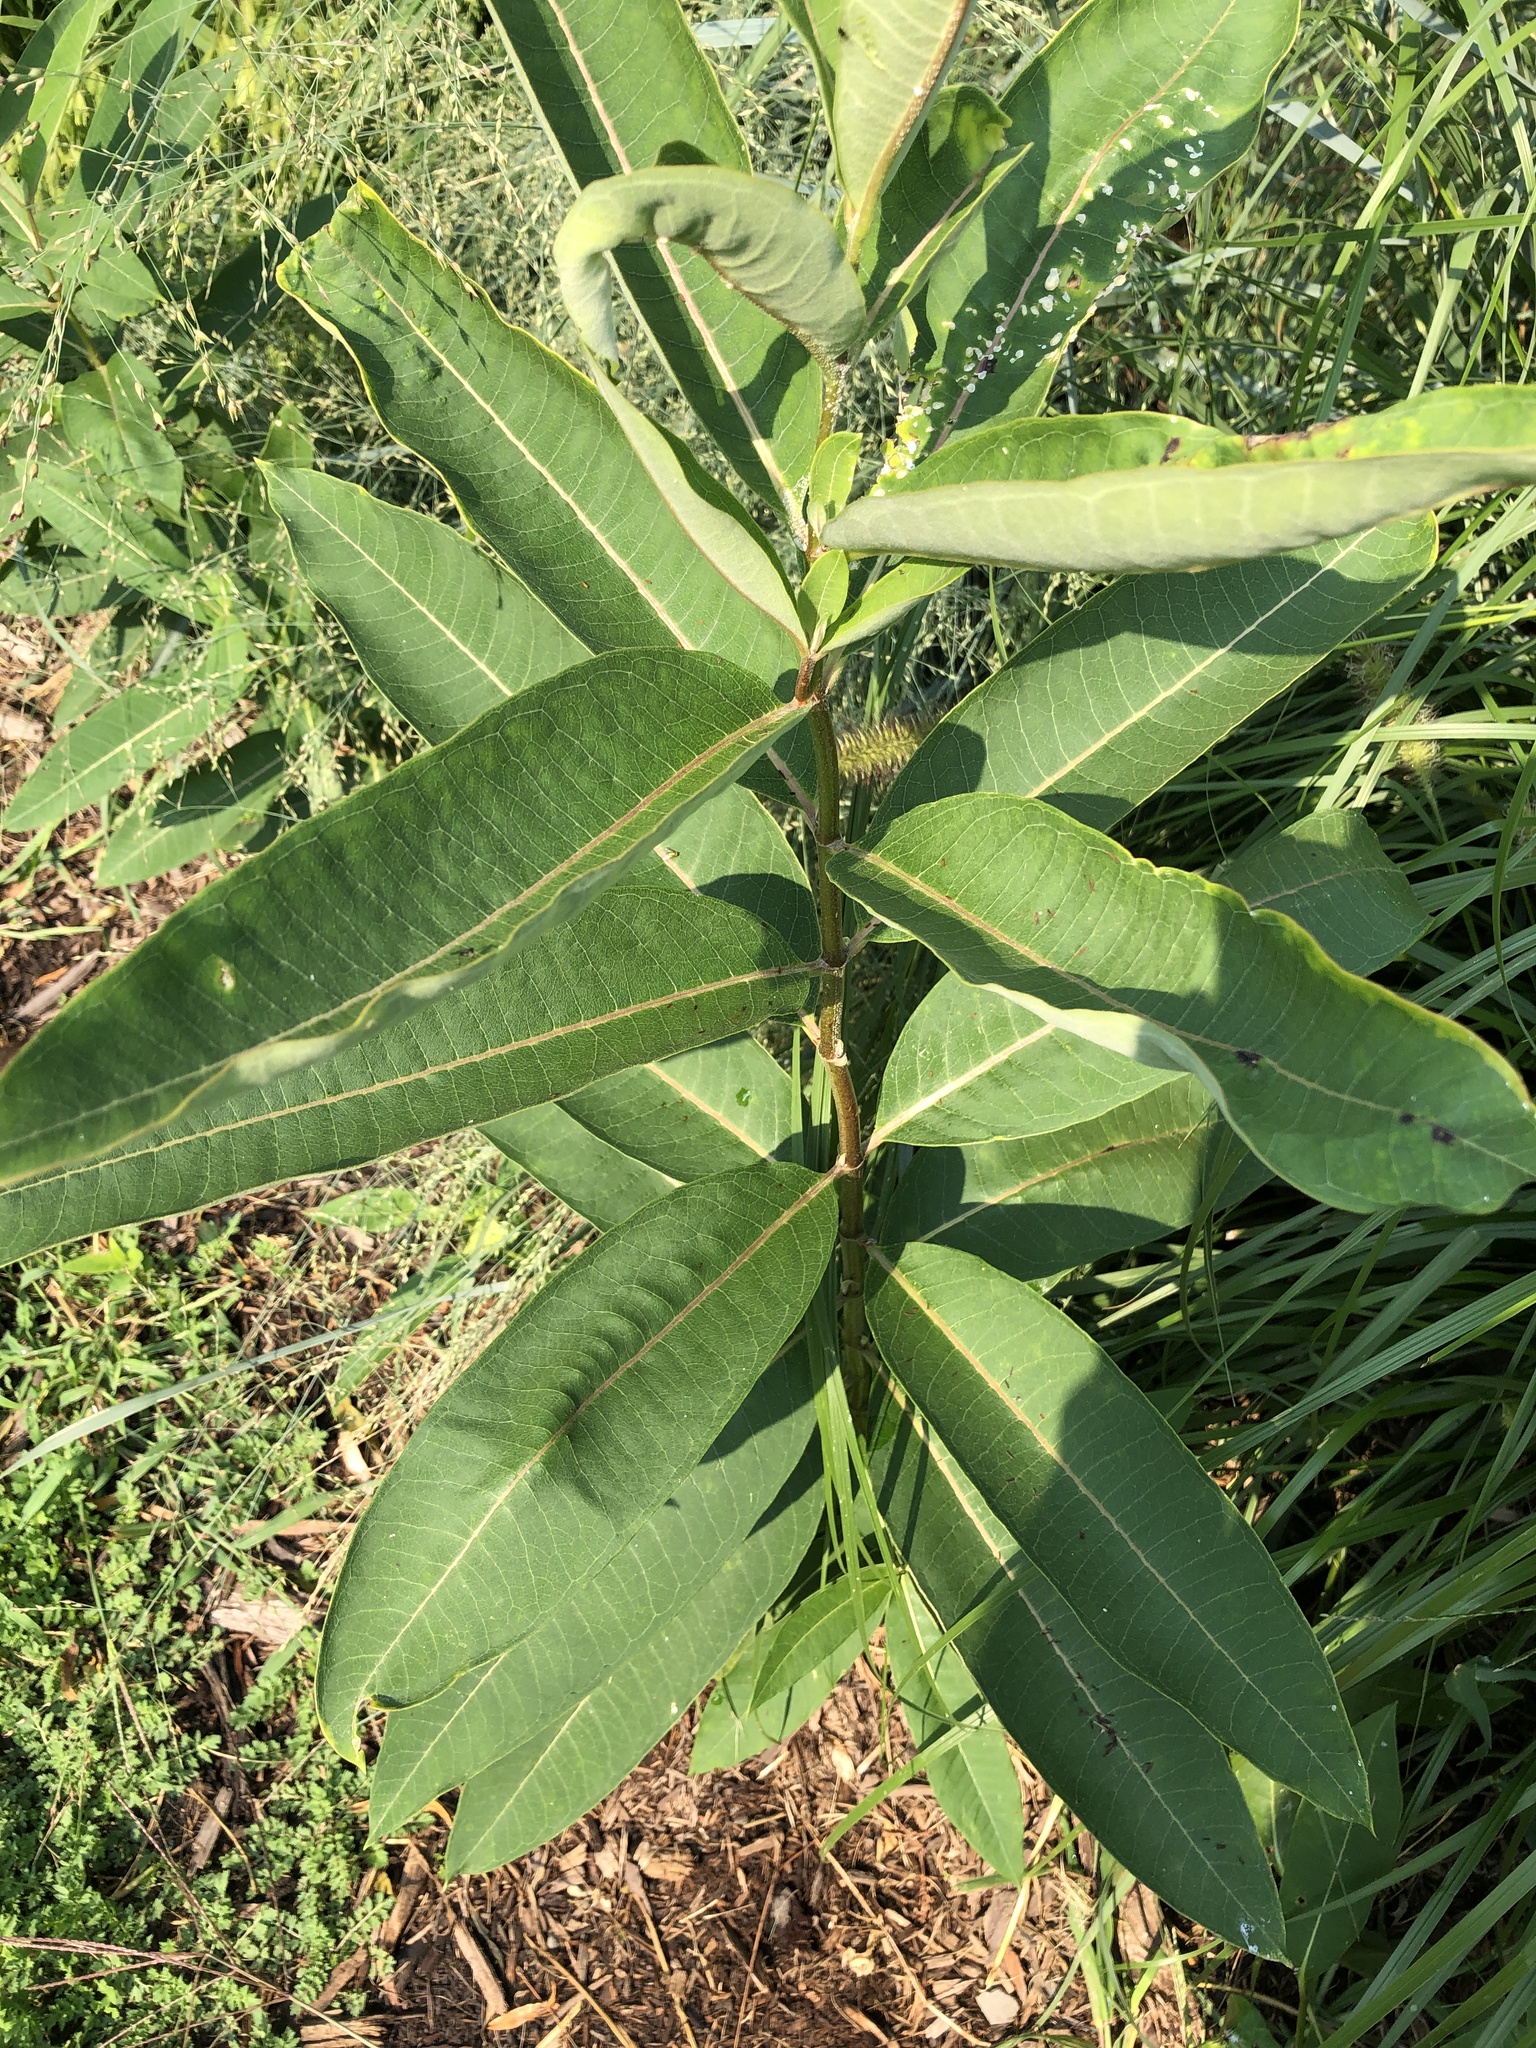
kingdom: Plantae
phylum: Tracheophyta
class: Magnoliopsida
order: Gentianales
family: Apocynaceae
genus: Asclepias
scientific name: Asclepias syriaca
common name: Common milkweed
